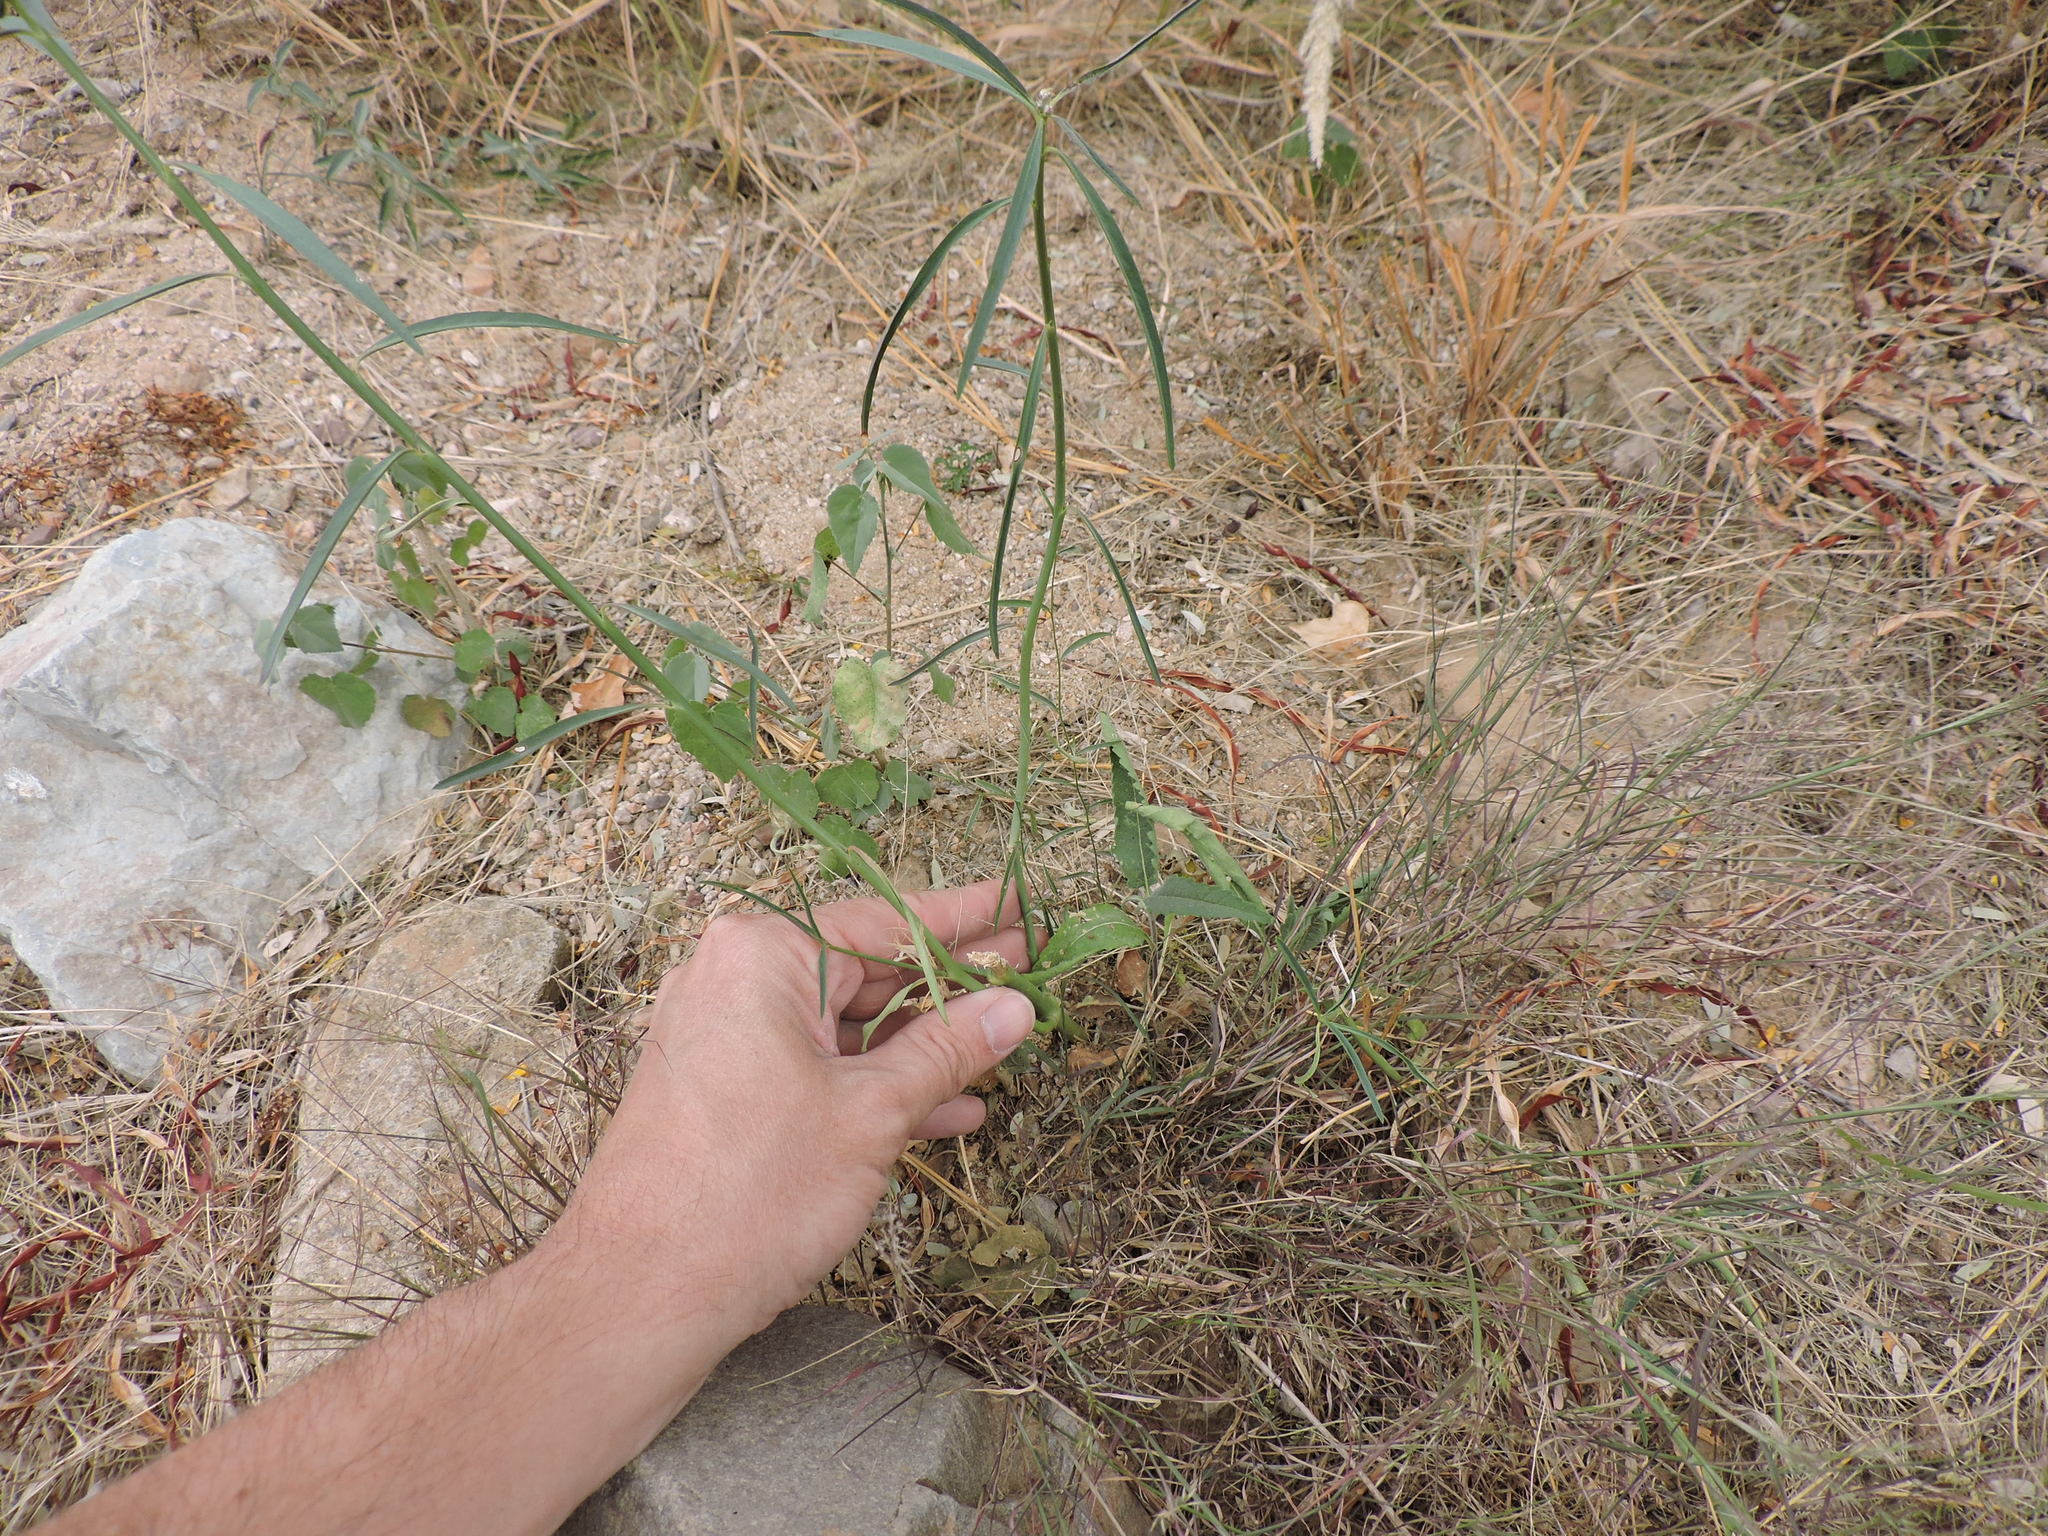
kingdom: Plantae
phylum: Tracheophyta
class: Magnoliopsida
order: Malpighiales
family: Euphorbiaceae
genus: Euphorbia
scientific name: Euphorbia eriantha
